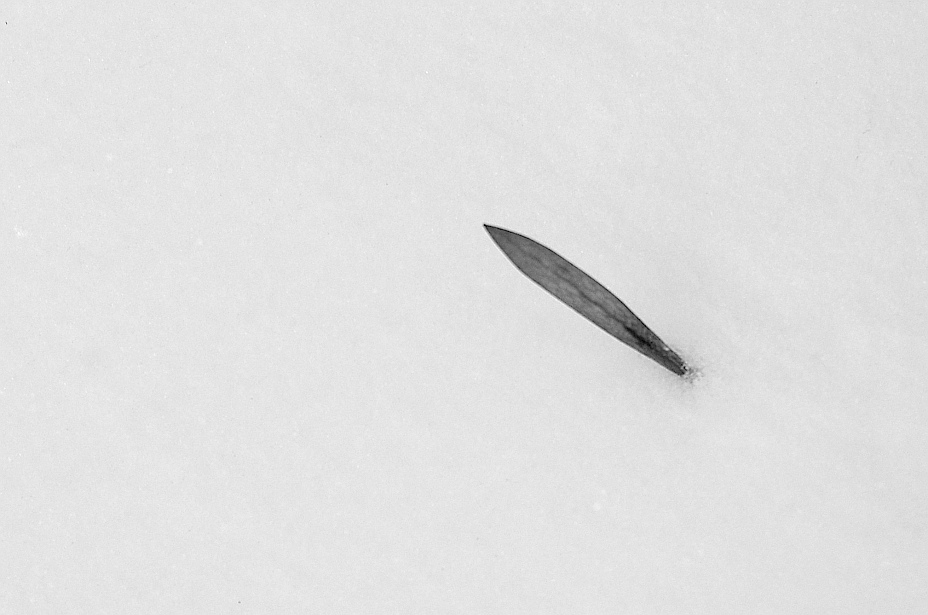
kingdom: Plantae
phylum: Tracheophyta
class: Magnoliopsida
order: Lamiales
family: Oleaceae
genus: Fraxinus
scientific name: Fraxinus pennsylvanica
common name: Green ash
